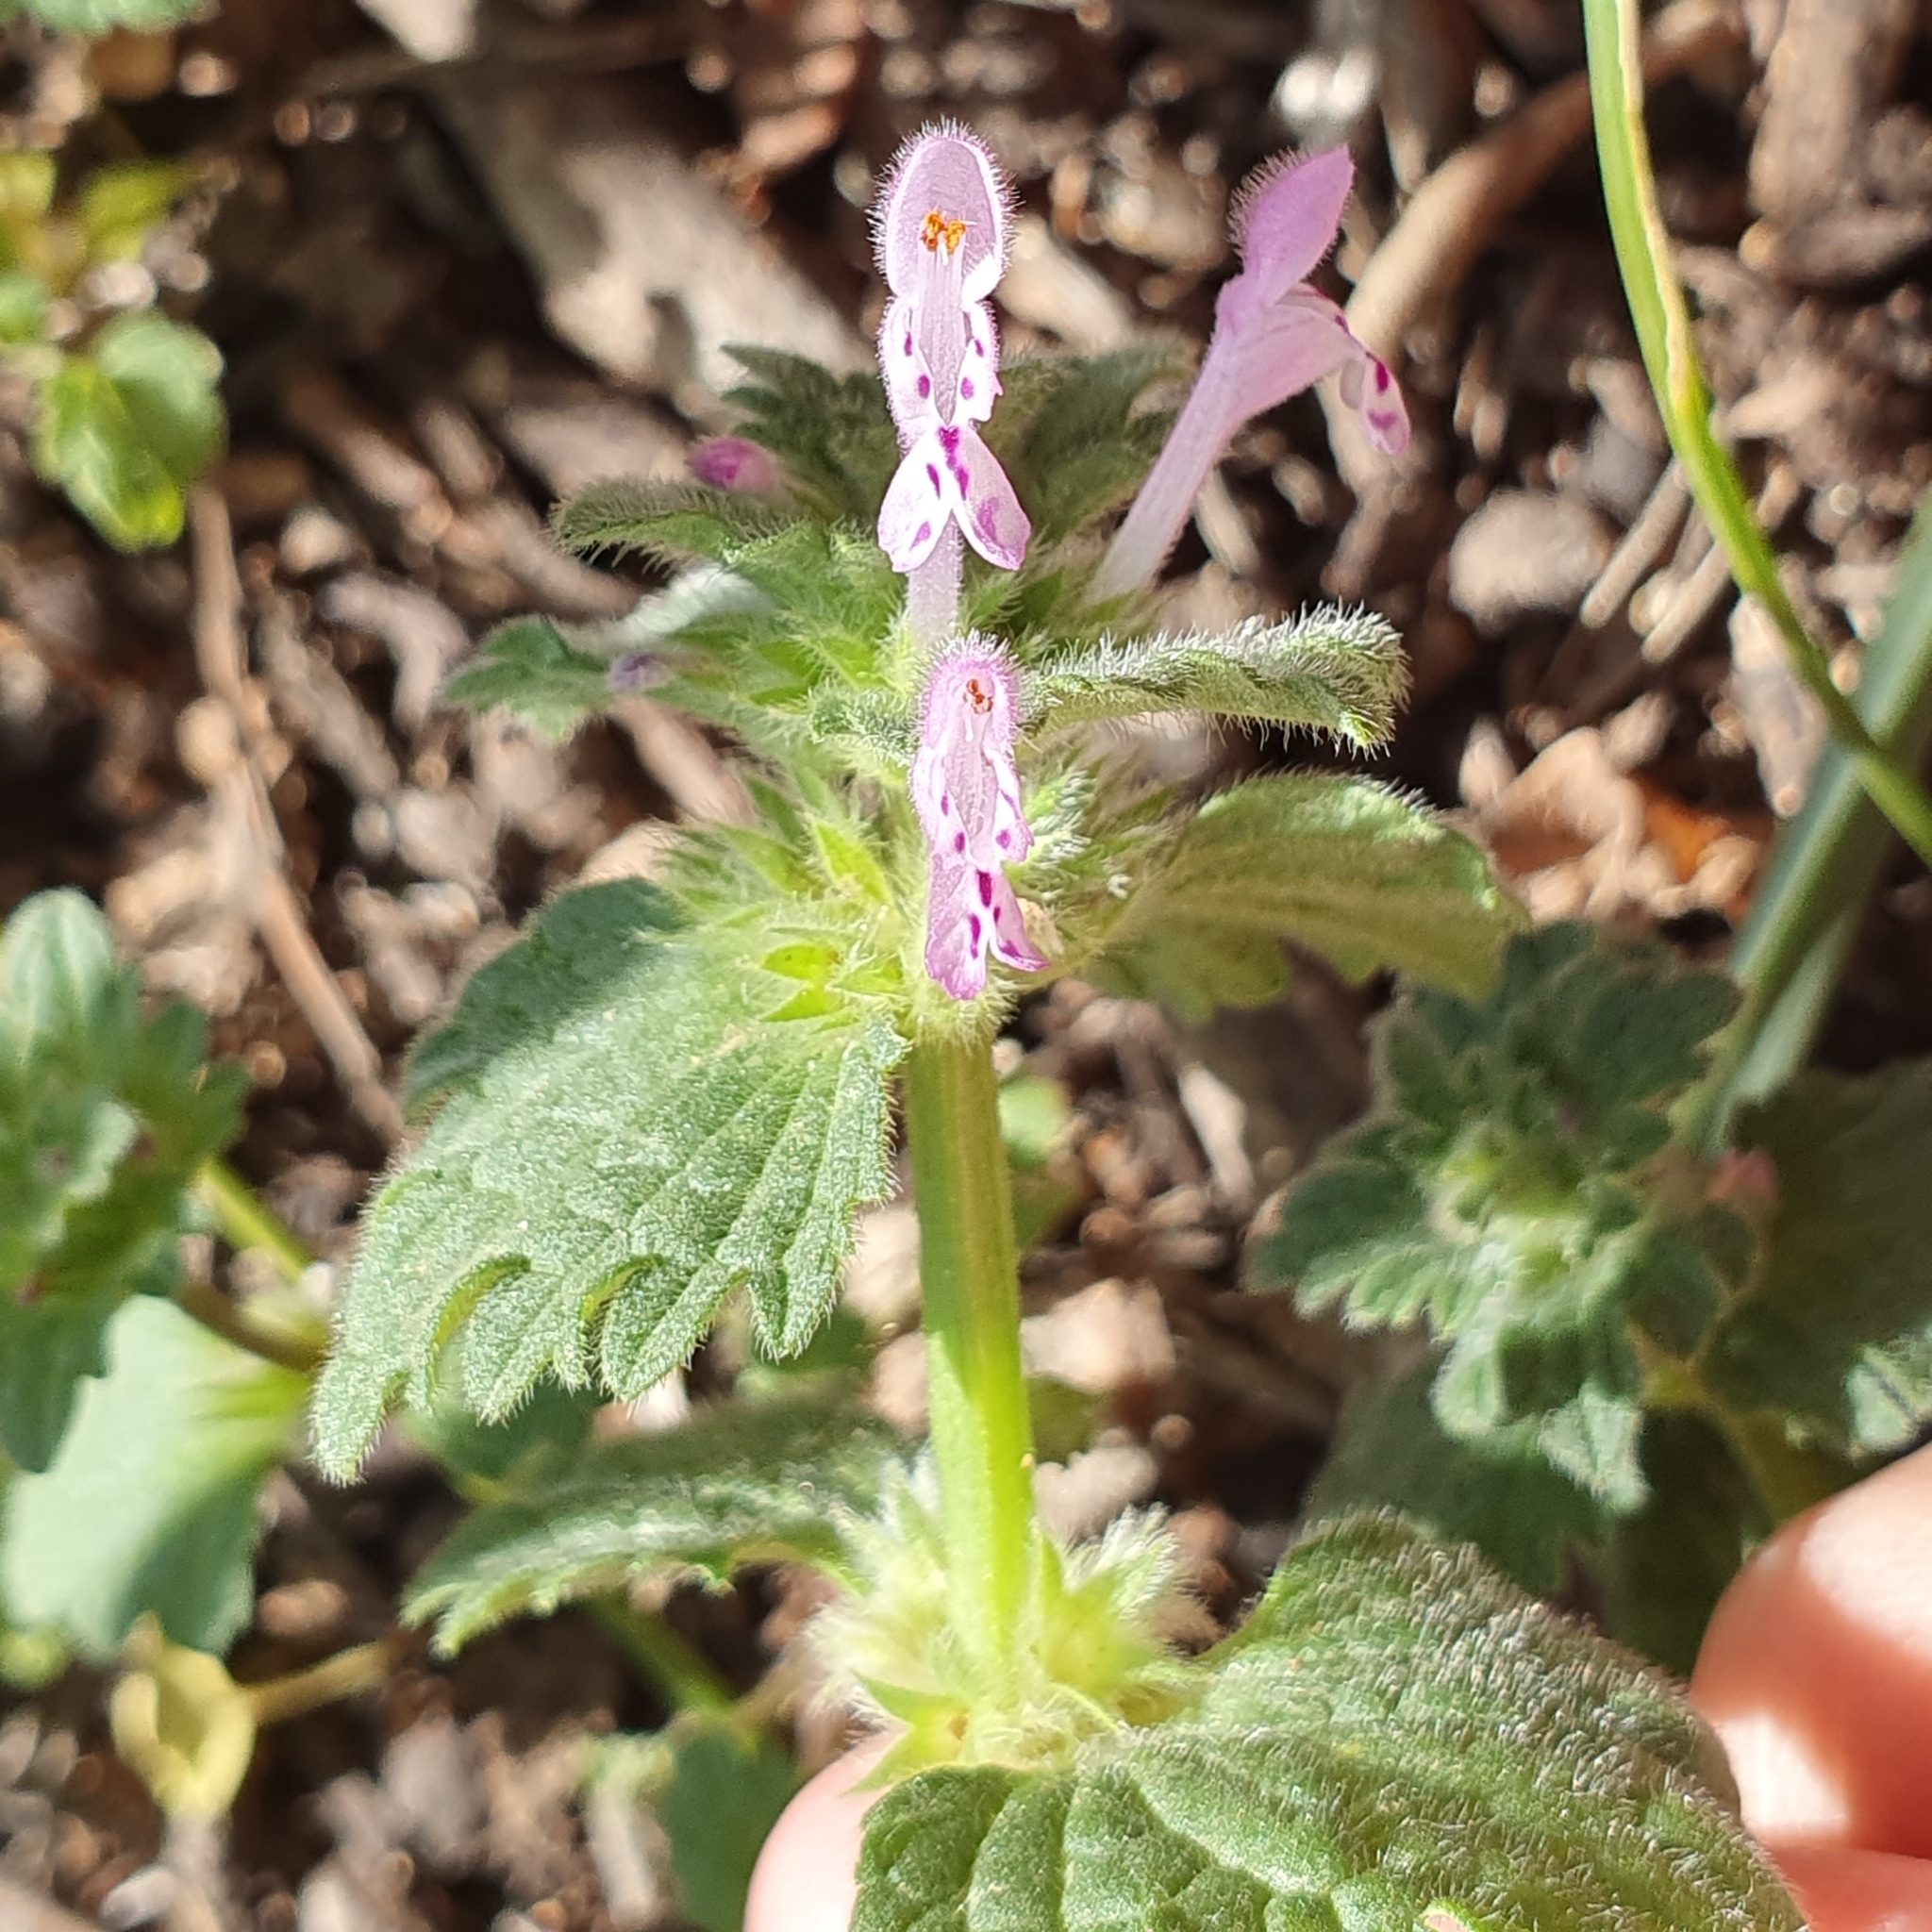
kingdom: Plantae
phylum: Tracheophyta
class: Magnoliopsida
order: Lamiales
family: Lamiaceae
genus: Lamium
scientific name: Lamium amplexicaule
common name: Henbit dead-nettle
